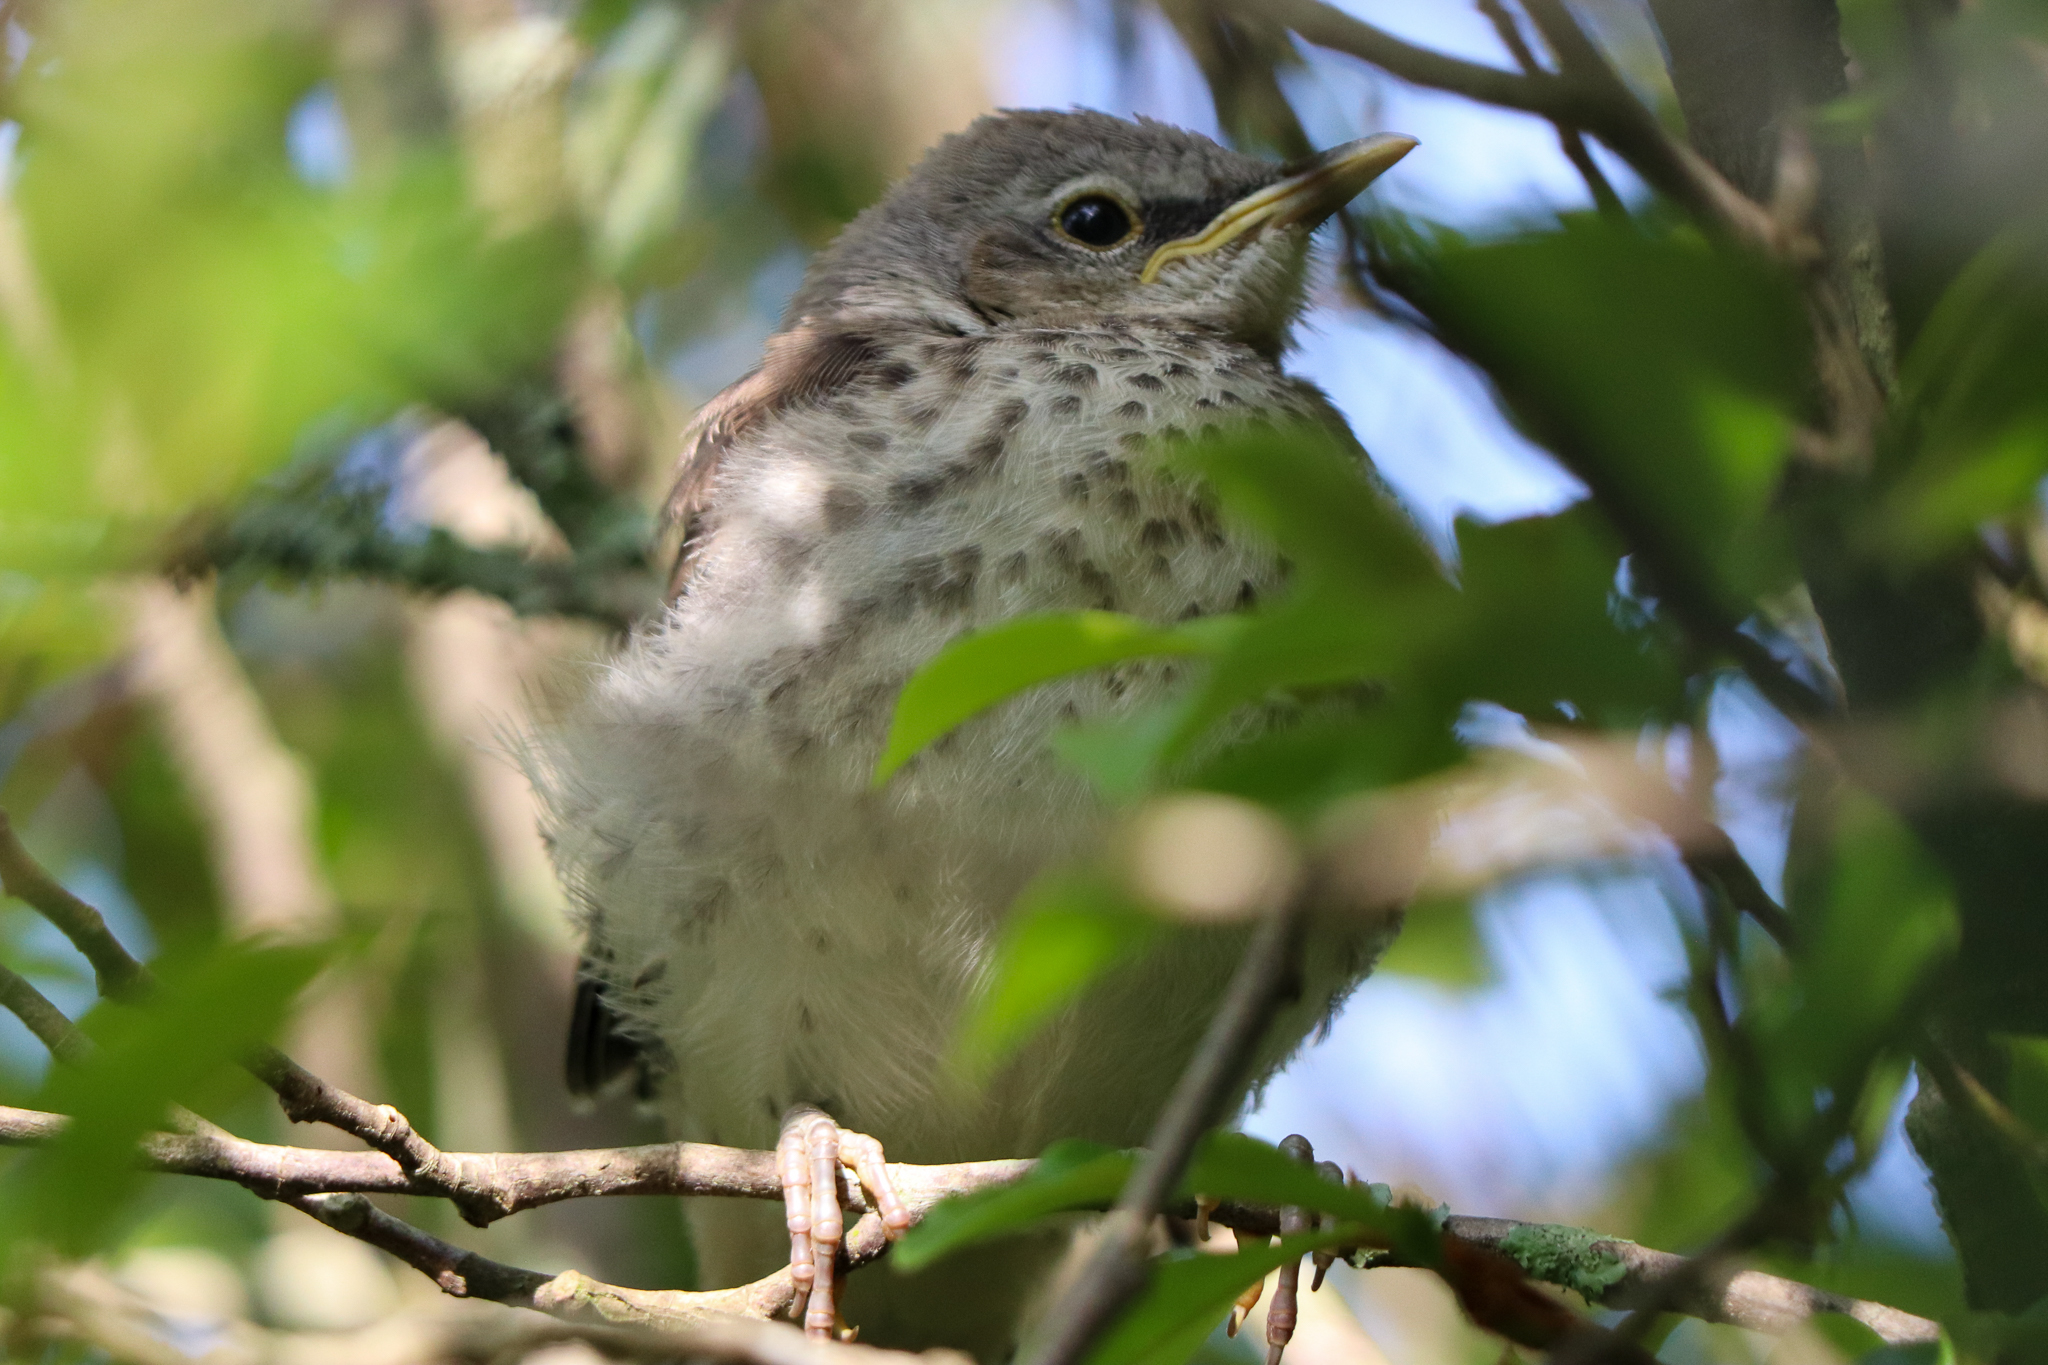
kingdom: Animalia
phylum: Chordata
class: Aves
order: Passeriformes
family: Mimidae
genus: Mimus
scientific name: Mimus polyglottos
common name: Northern mockingbird
